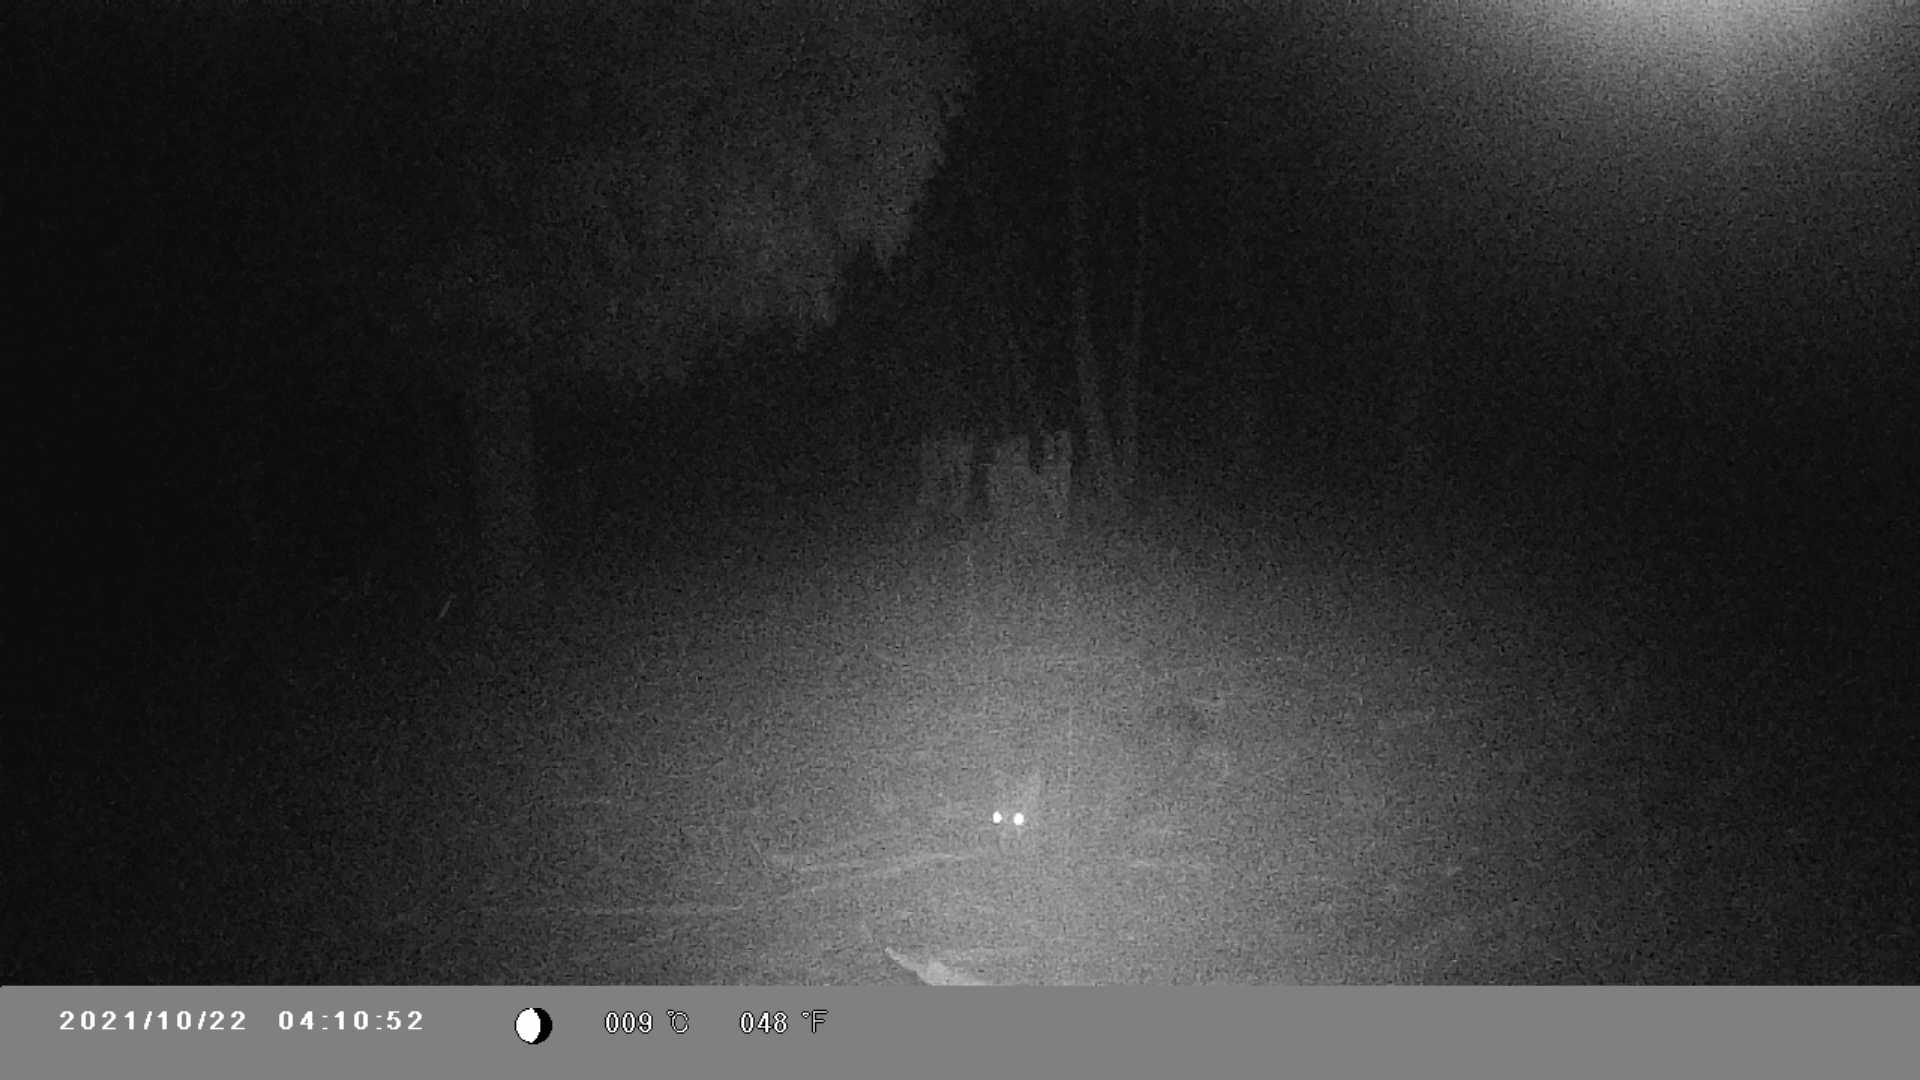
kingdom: Animalia
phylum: Chordata
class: Mammalia
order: Diprotodontia
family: Phalangeridae
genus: Trichosurus
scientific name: Trichosurus vulpecula
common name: Common brushtail
